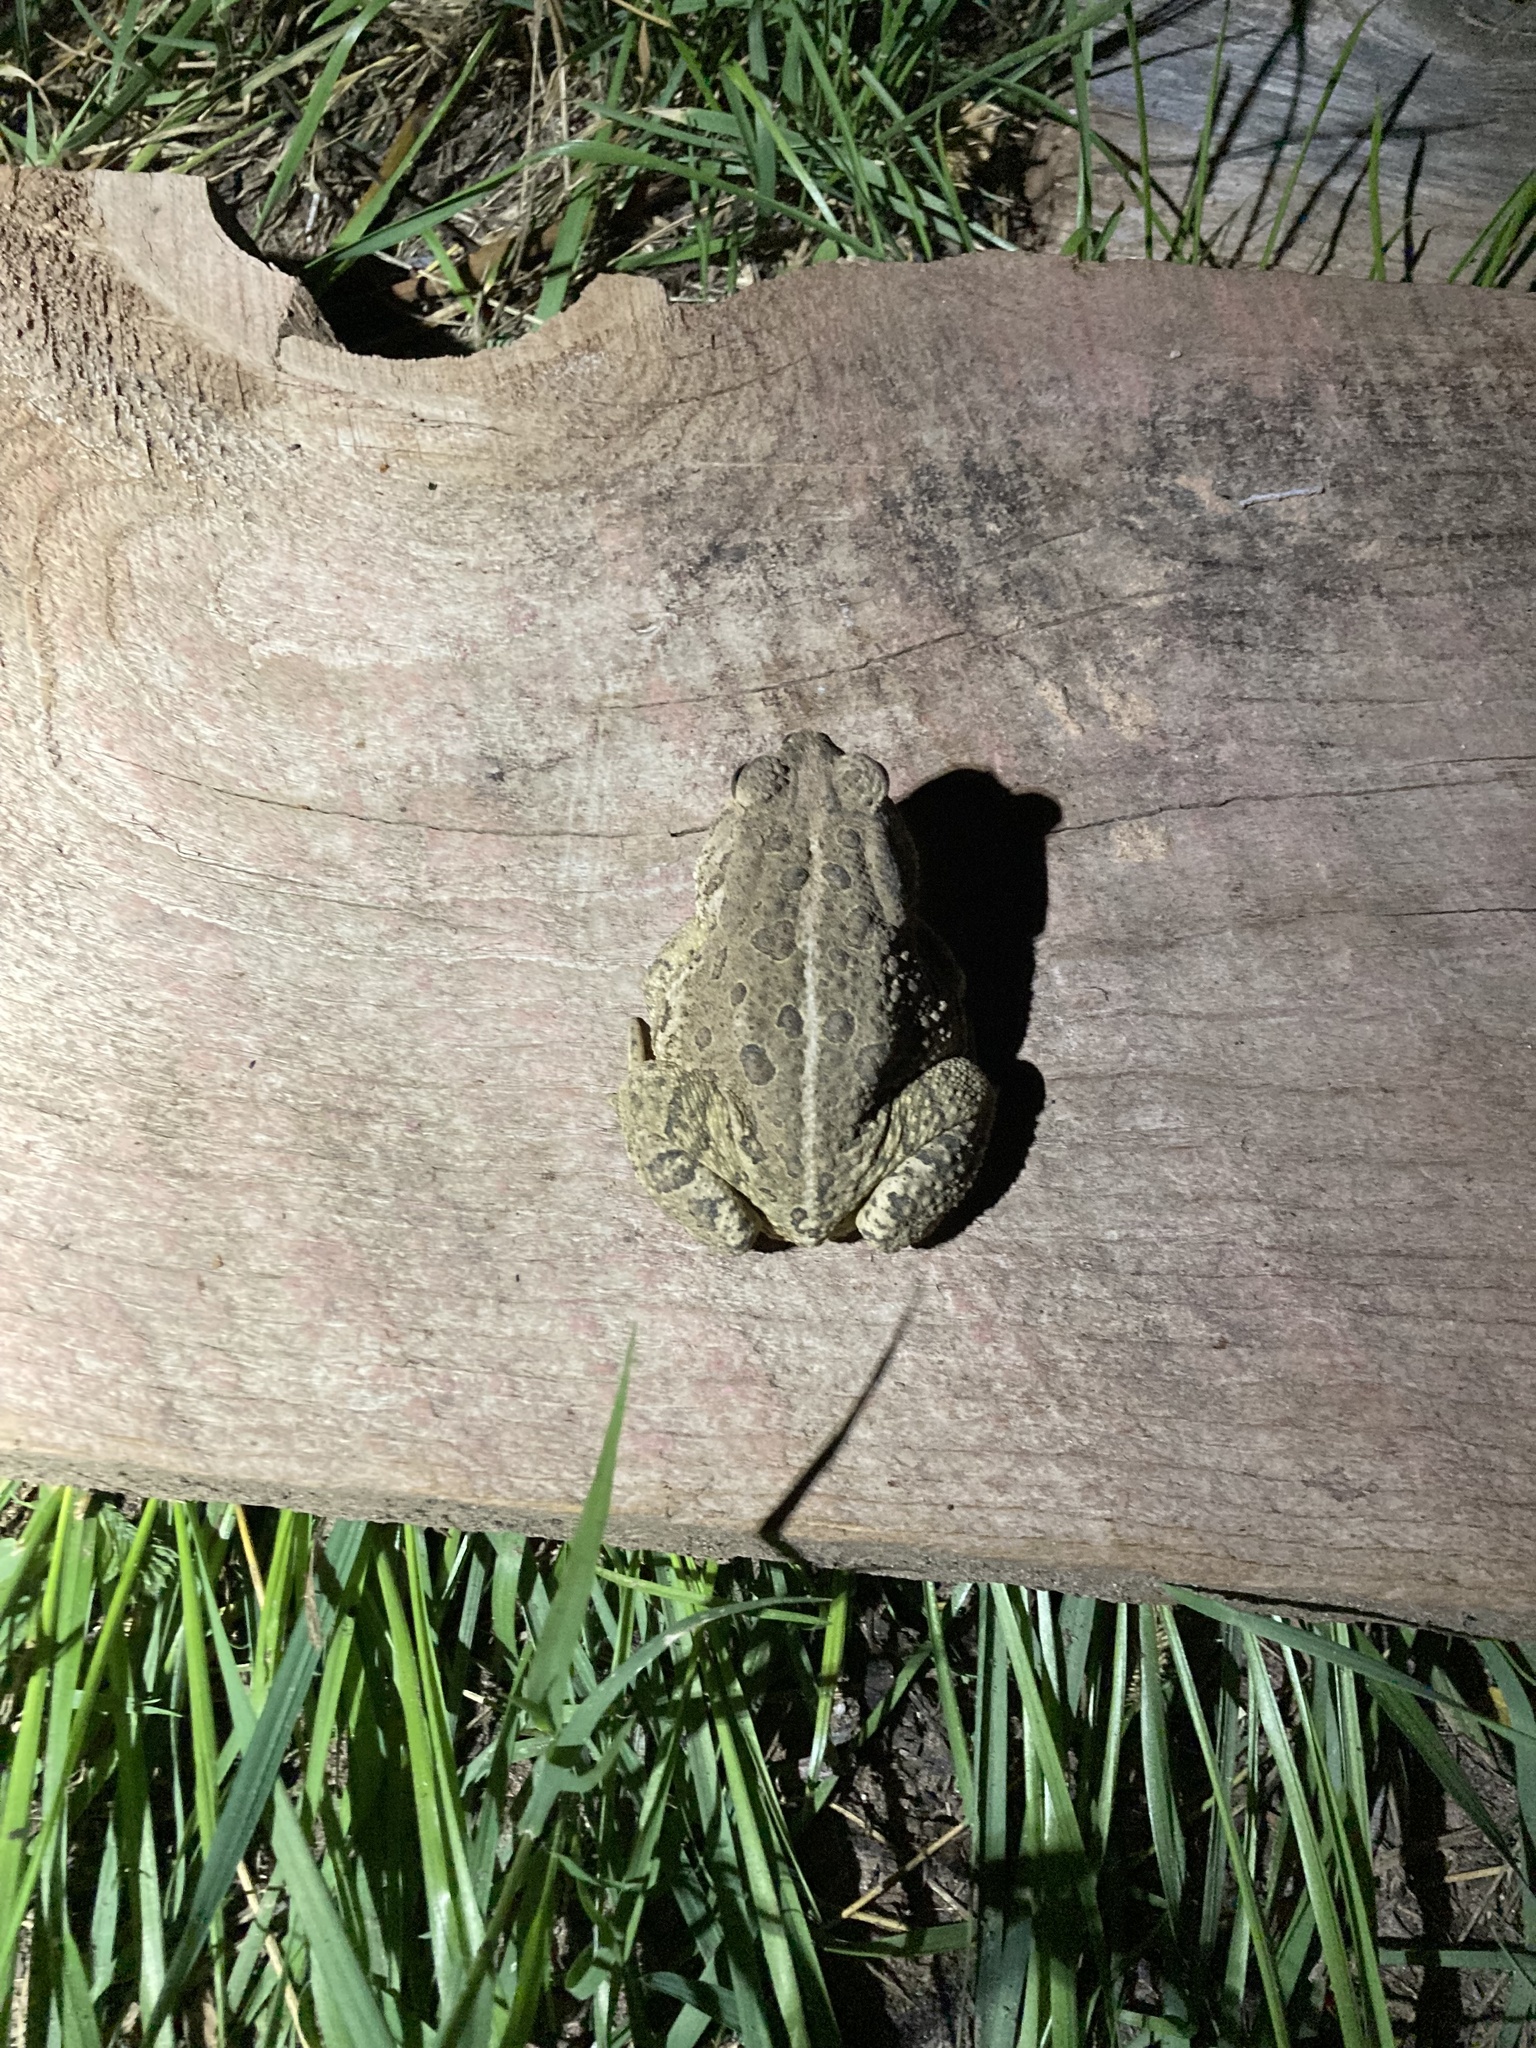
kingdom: Animalia
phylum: Chordata
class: Amphibia
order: Anura
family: Bufonidae
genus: Anaxyrus
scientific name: Anaxyrus woodhousii
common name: Woodhouse's toad
